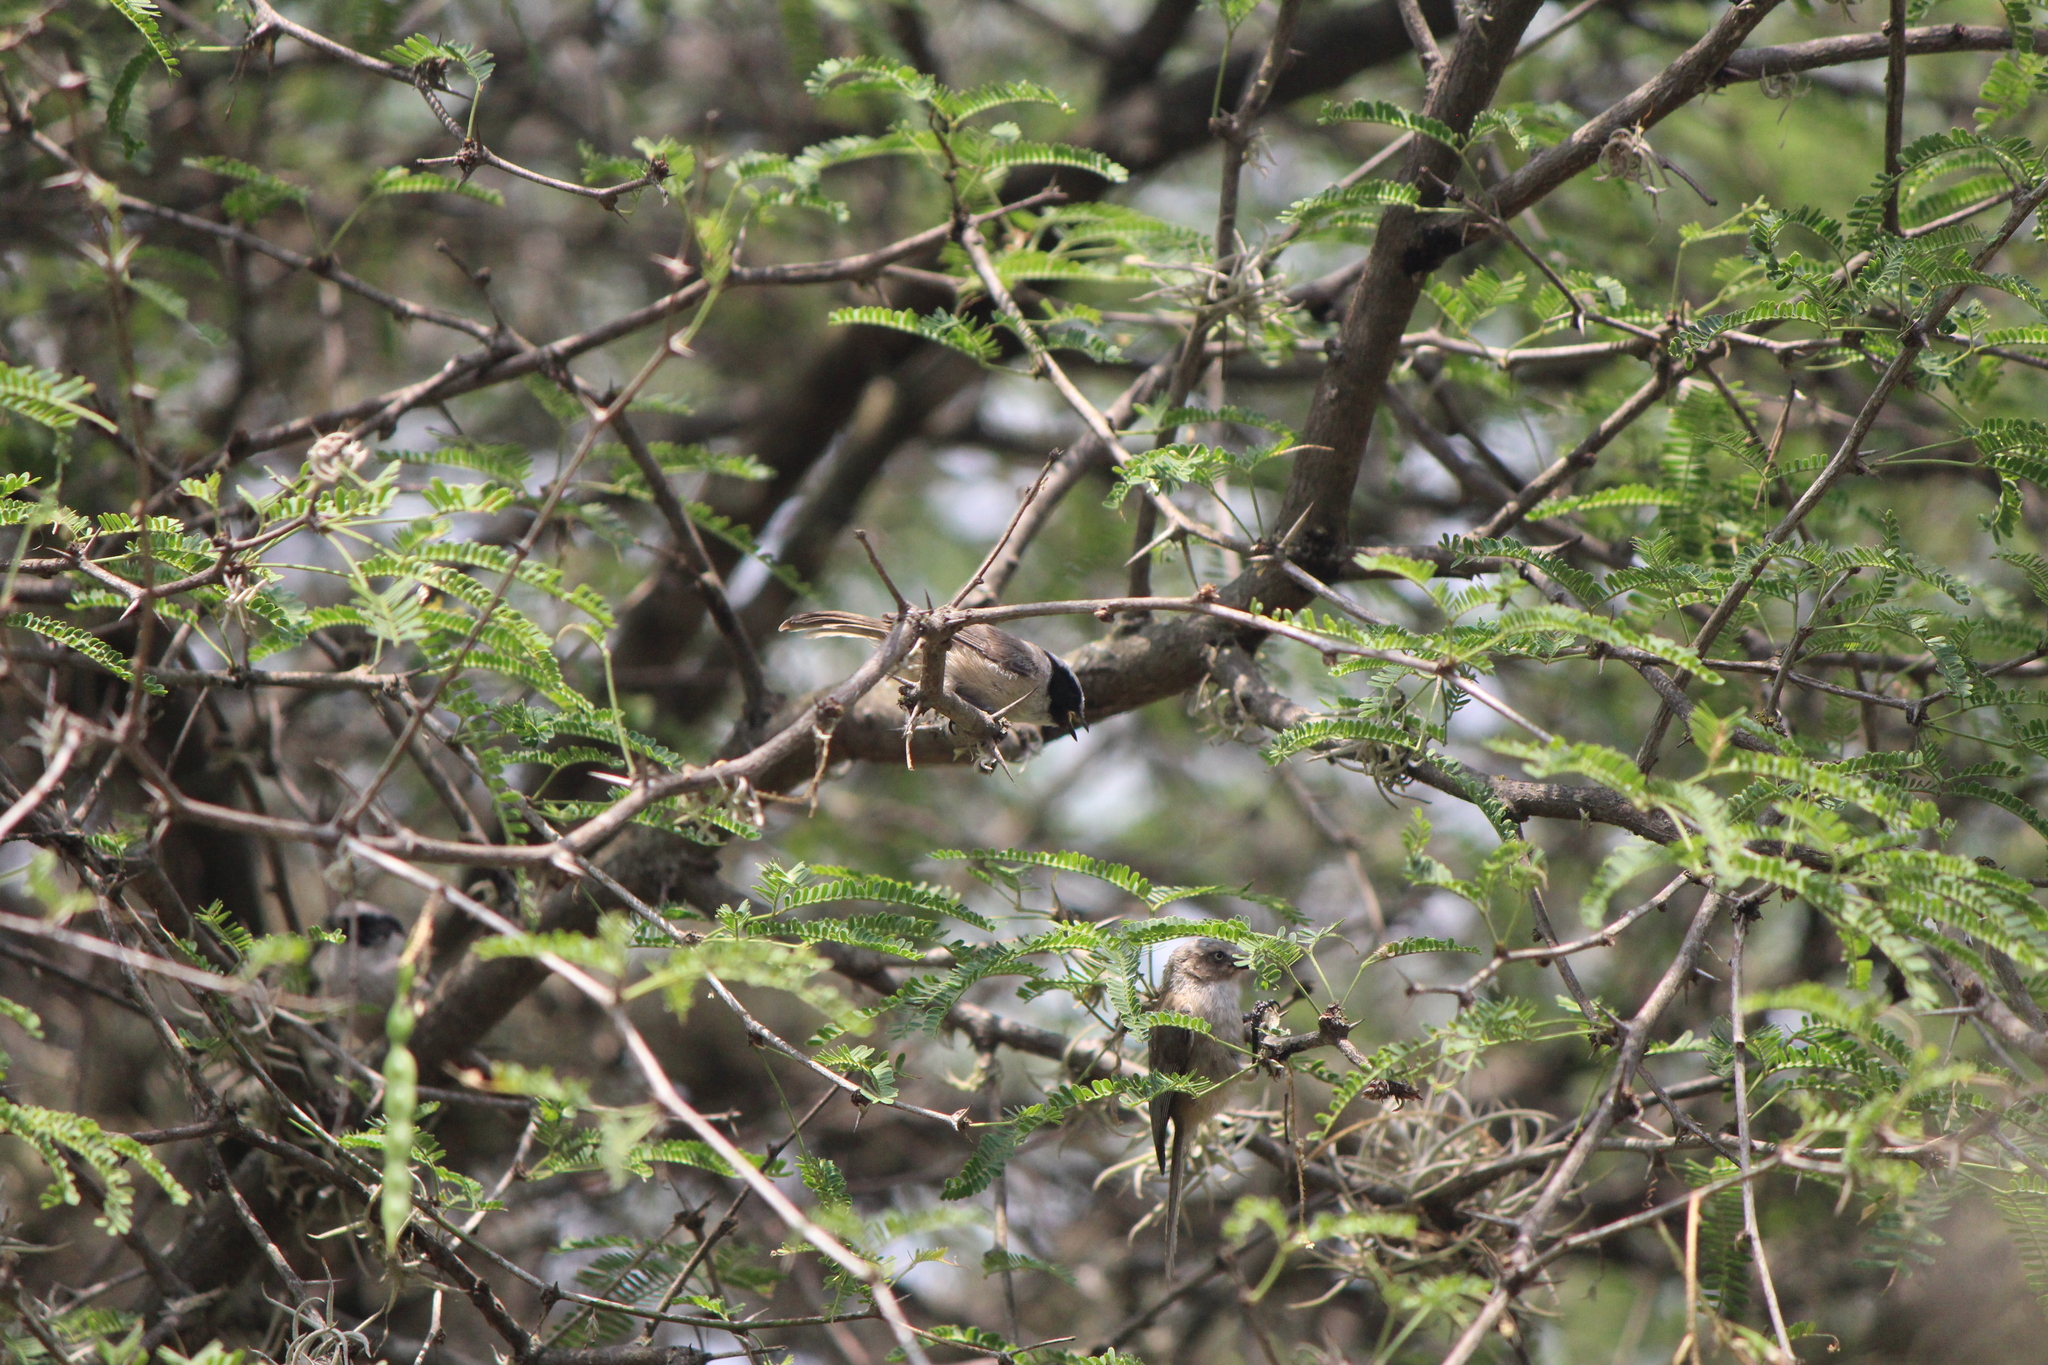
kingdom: Animalia
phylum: Chordata
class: Aves
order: Passeriformes
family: Aegithalidae
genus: Psaltriparus
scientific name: Psaltriparus minimus
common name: American bushtit
